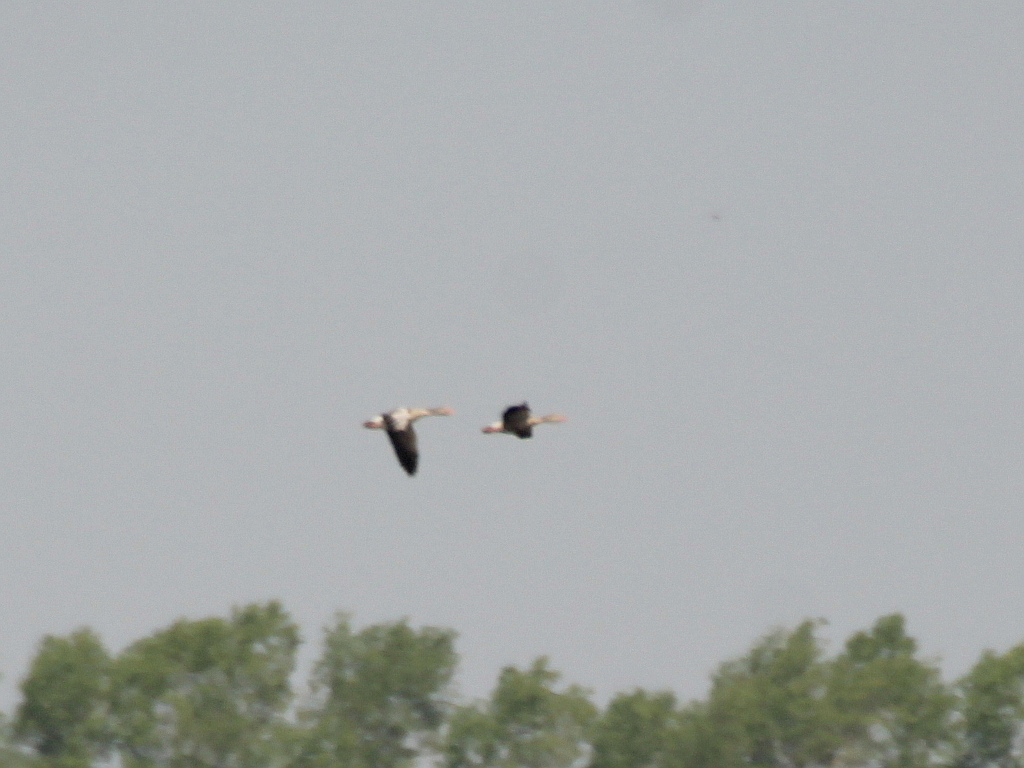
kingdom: Animalia
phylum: Chordata
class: Aves
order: Anseriformes
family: Anatidae
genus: Anser
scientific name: Anser anser
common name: Greylag goose
